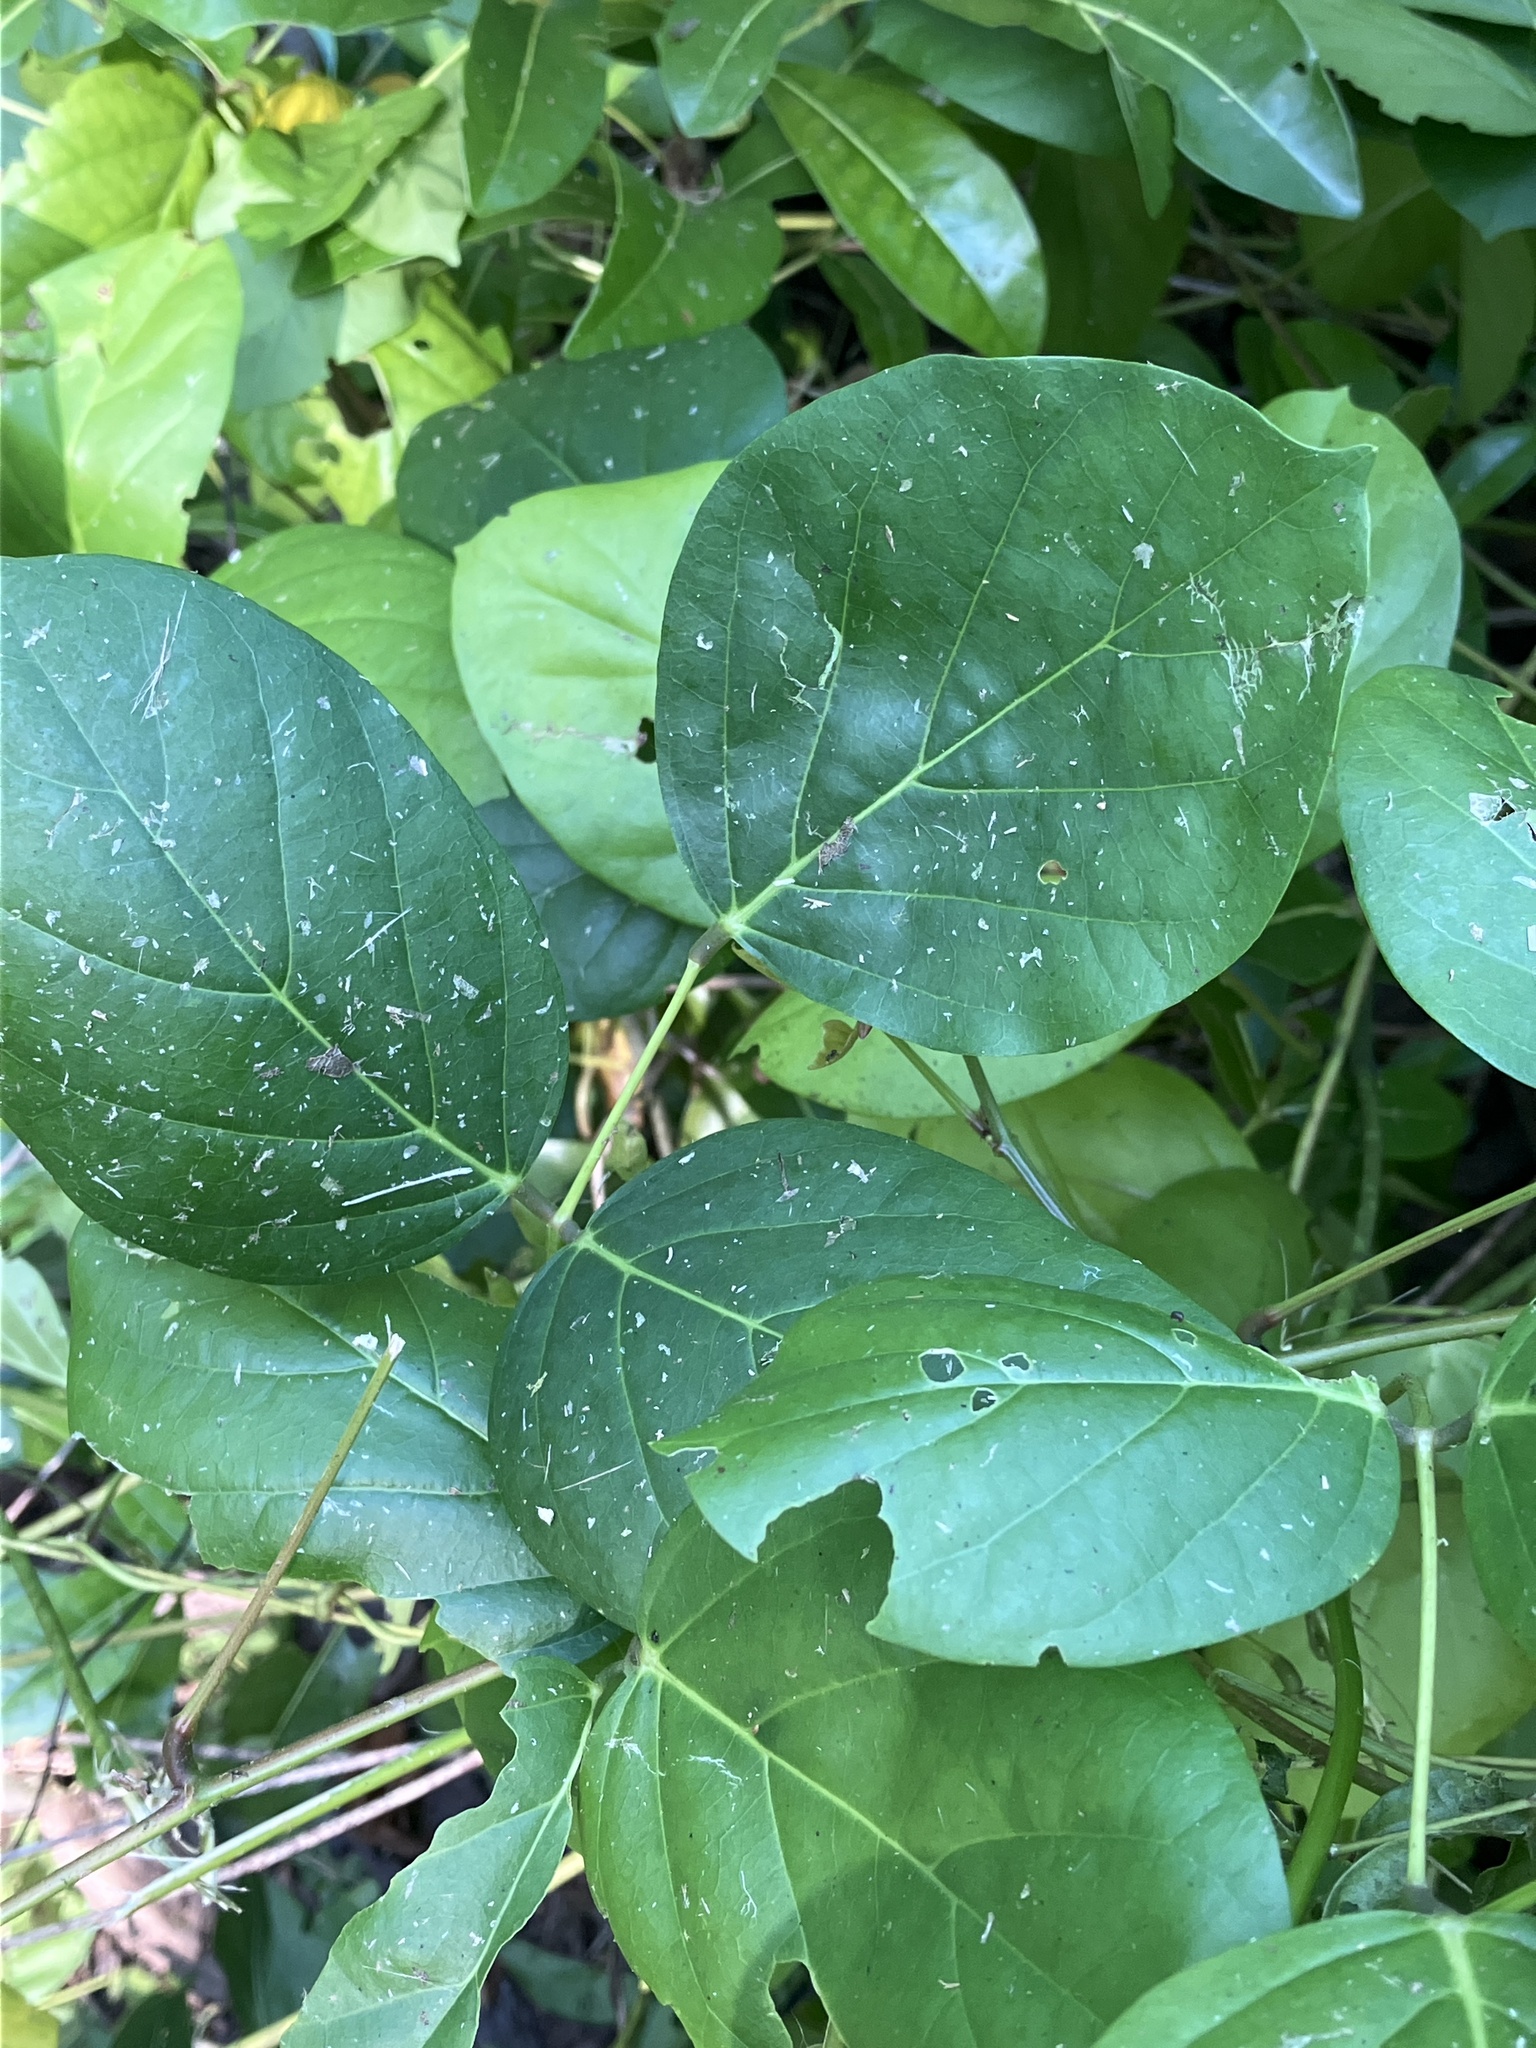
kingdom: Plantae
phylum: Tracheophyta
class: Magnoliopsida
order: Fabales
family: Fabaceae
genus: Canavalia
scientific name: Canavalia cathartica
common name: Maunaloa
